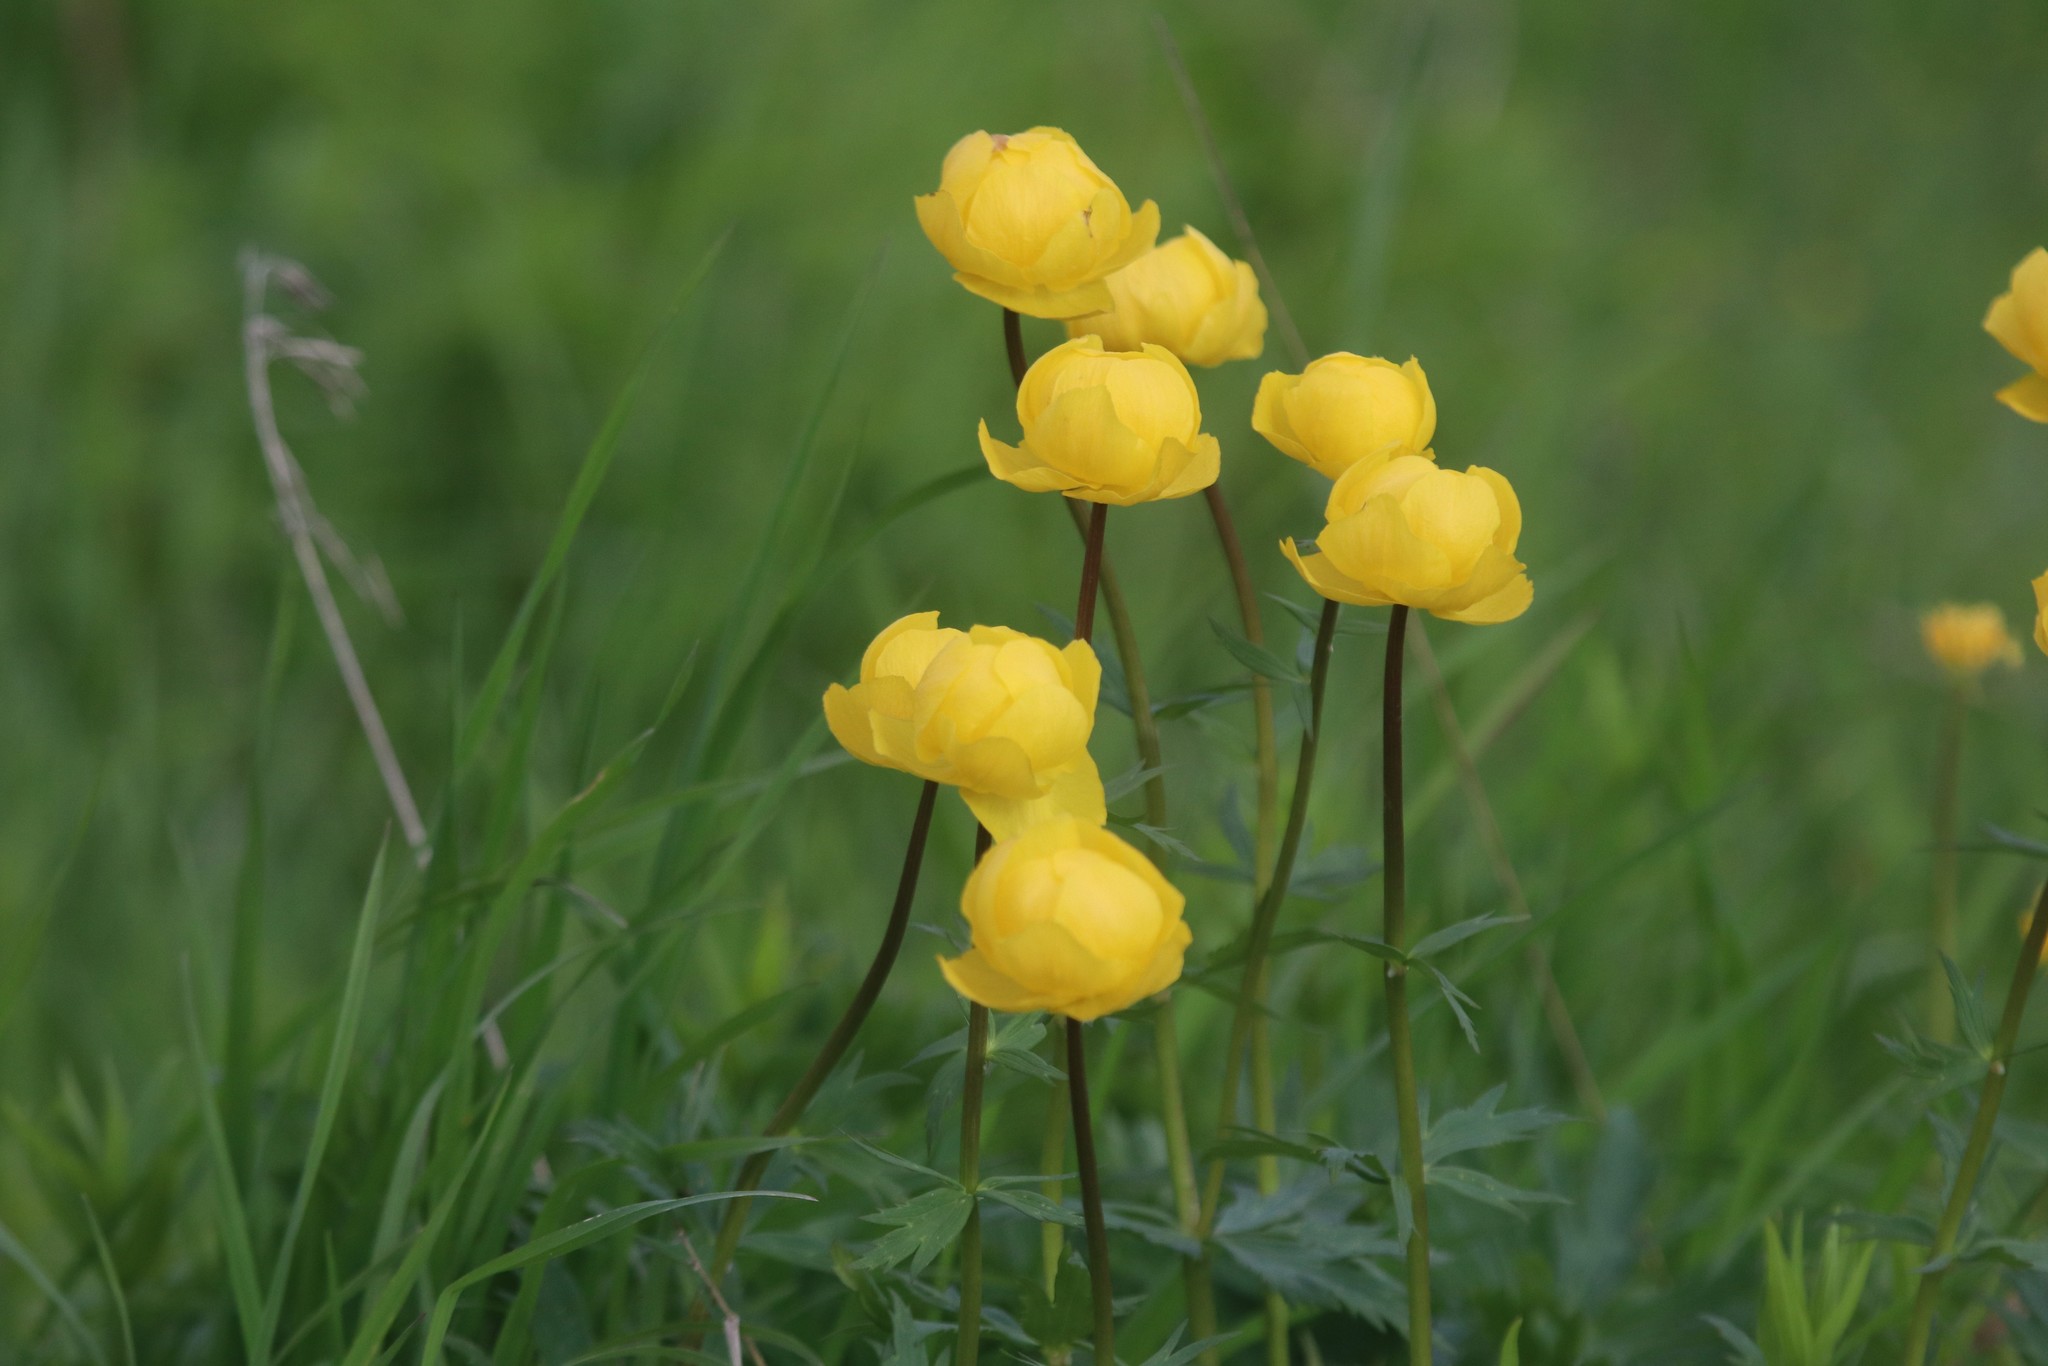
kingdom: Plantae
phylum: Tracheophyta
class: Magnoliopsida
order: Ranunculales
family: Ranunculaceae
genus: Trollius
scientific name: Trollius europaeus
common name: European globeflower
